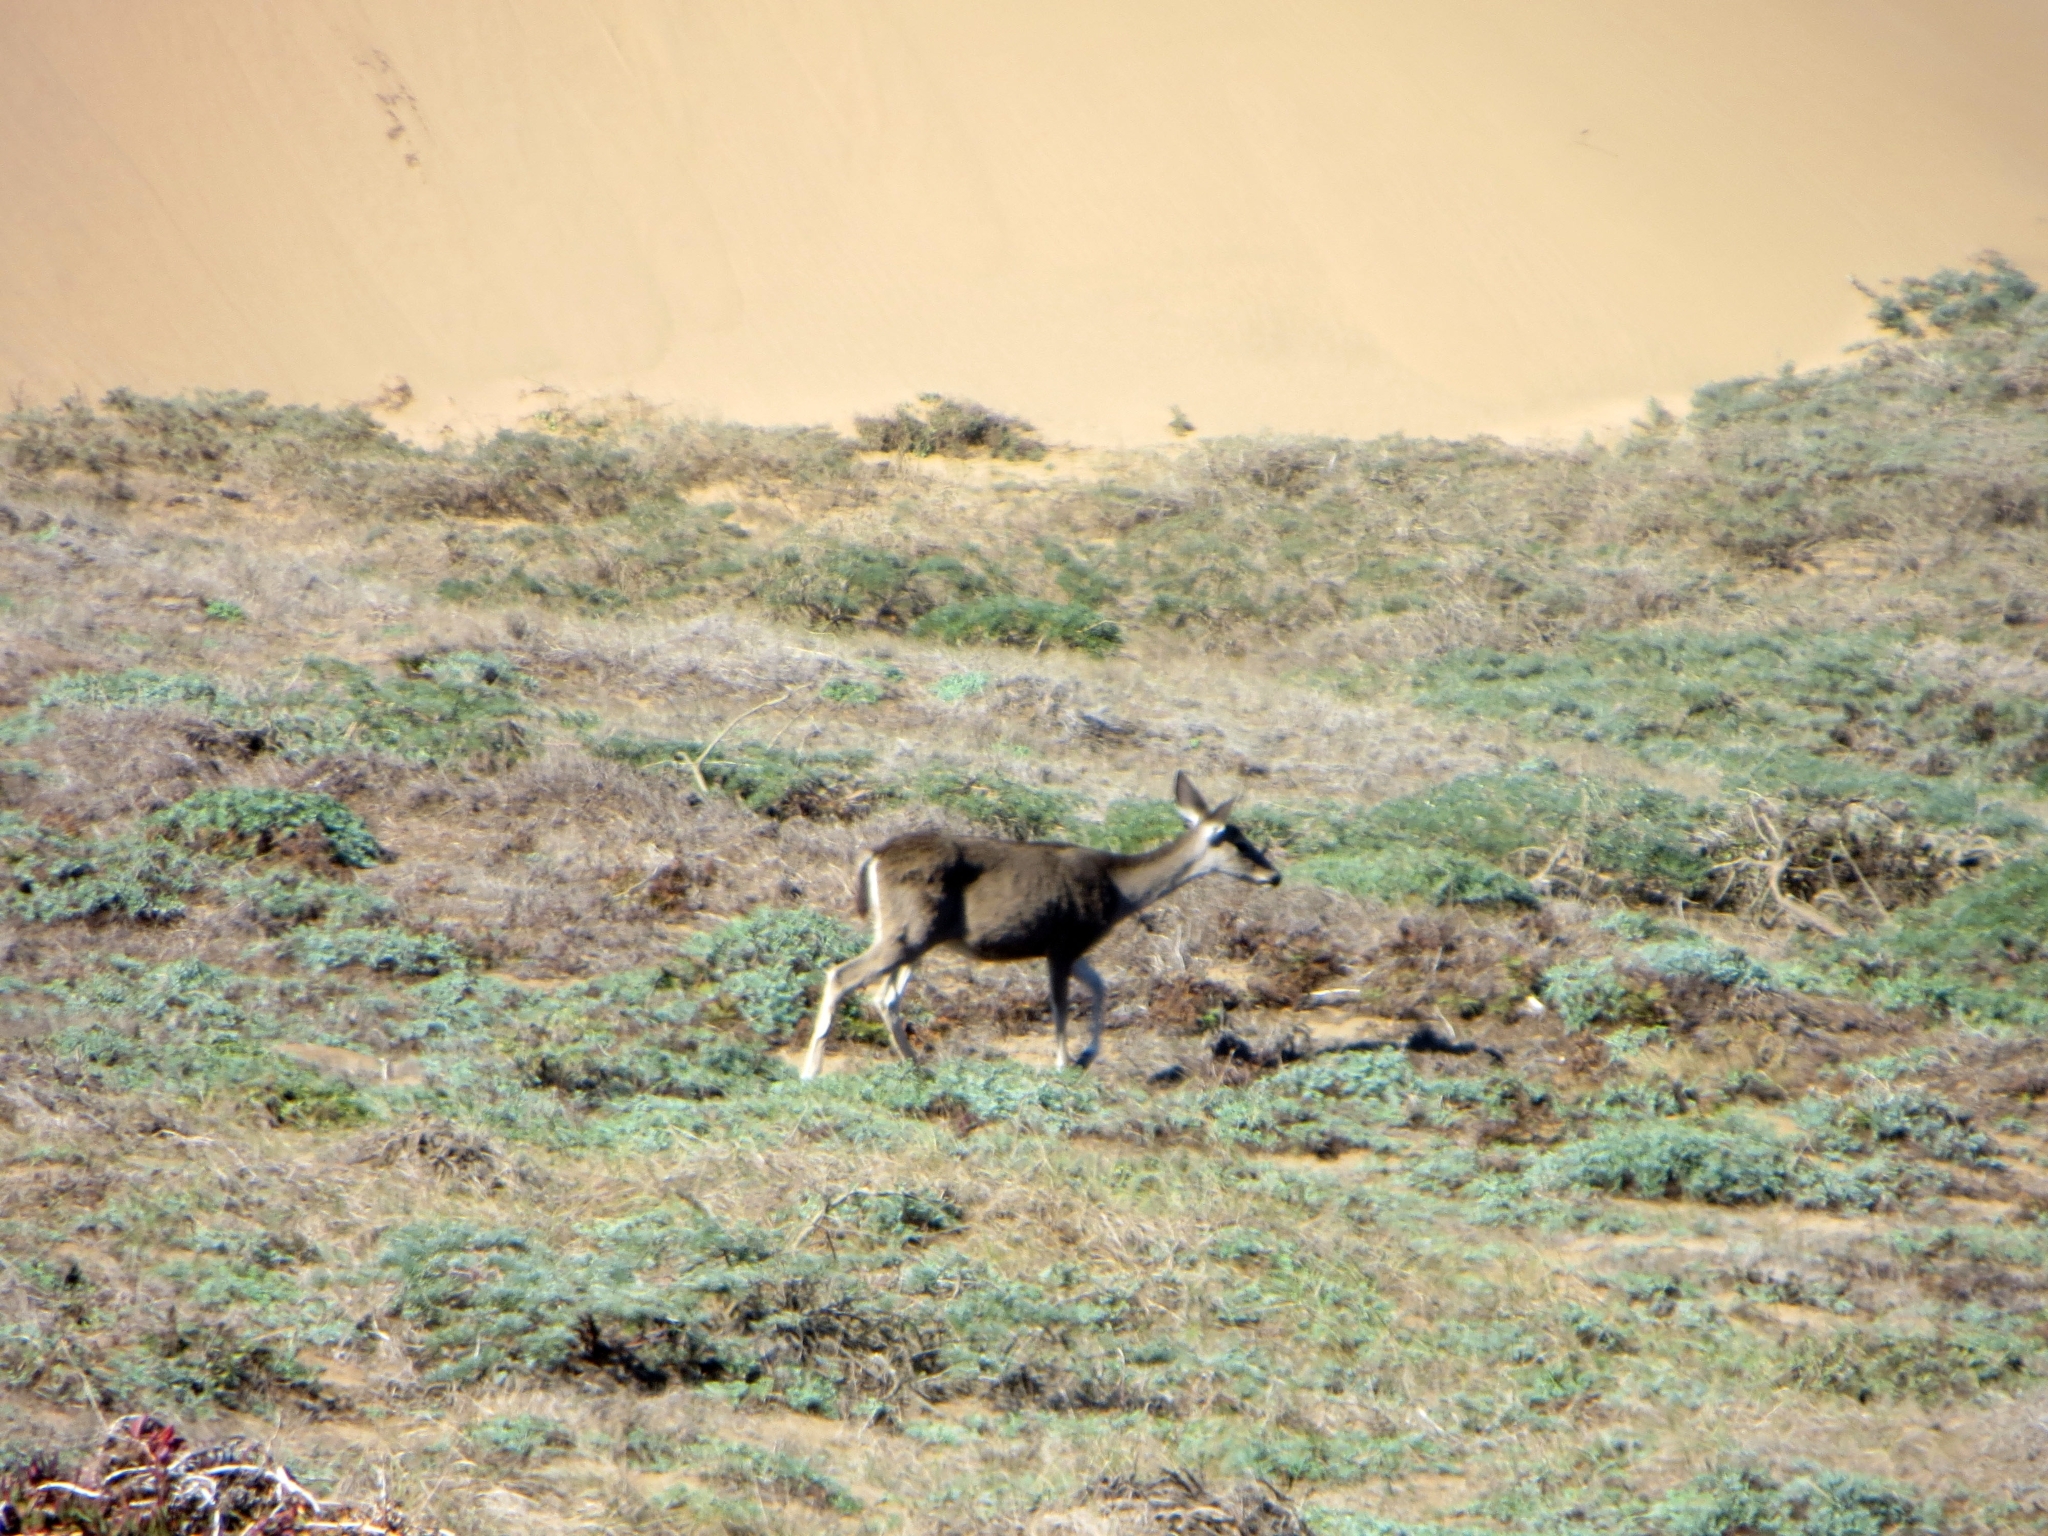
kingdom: Animalia
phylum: Chordata
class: Mammalia
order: Artiodactyla
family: Cervidae
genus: Odocoileus
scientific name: Odocoileus hemionus
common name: Mule deer
